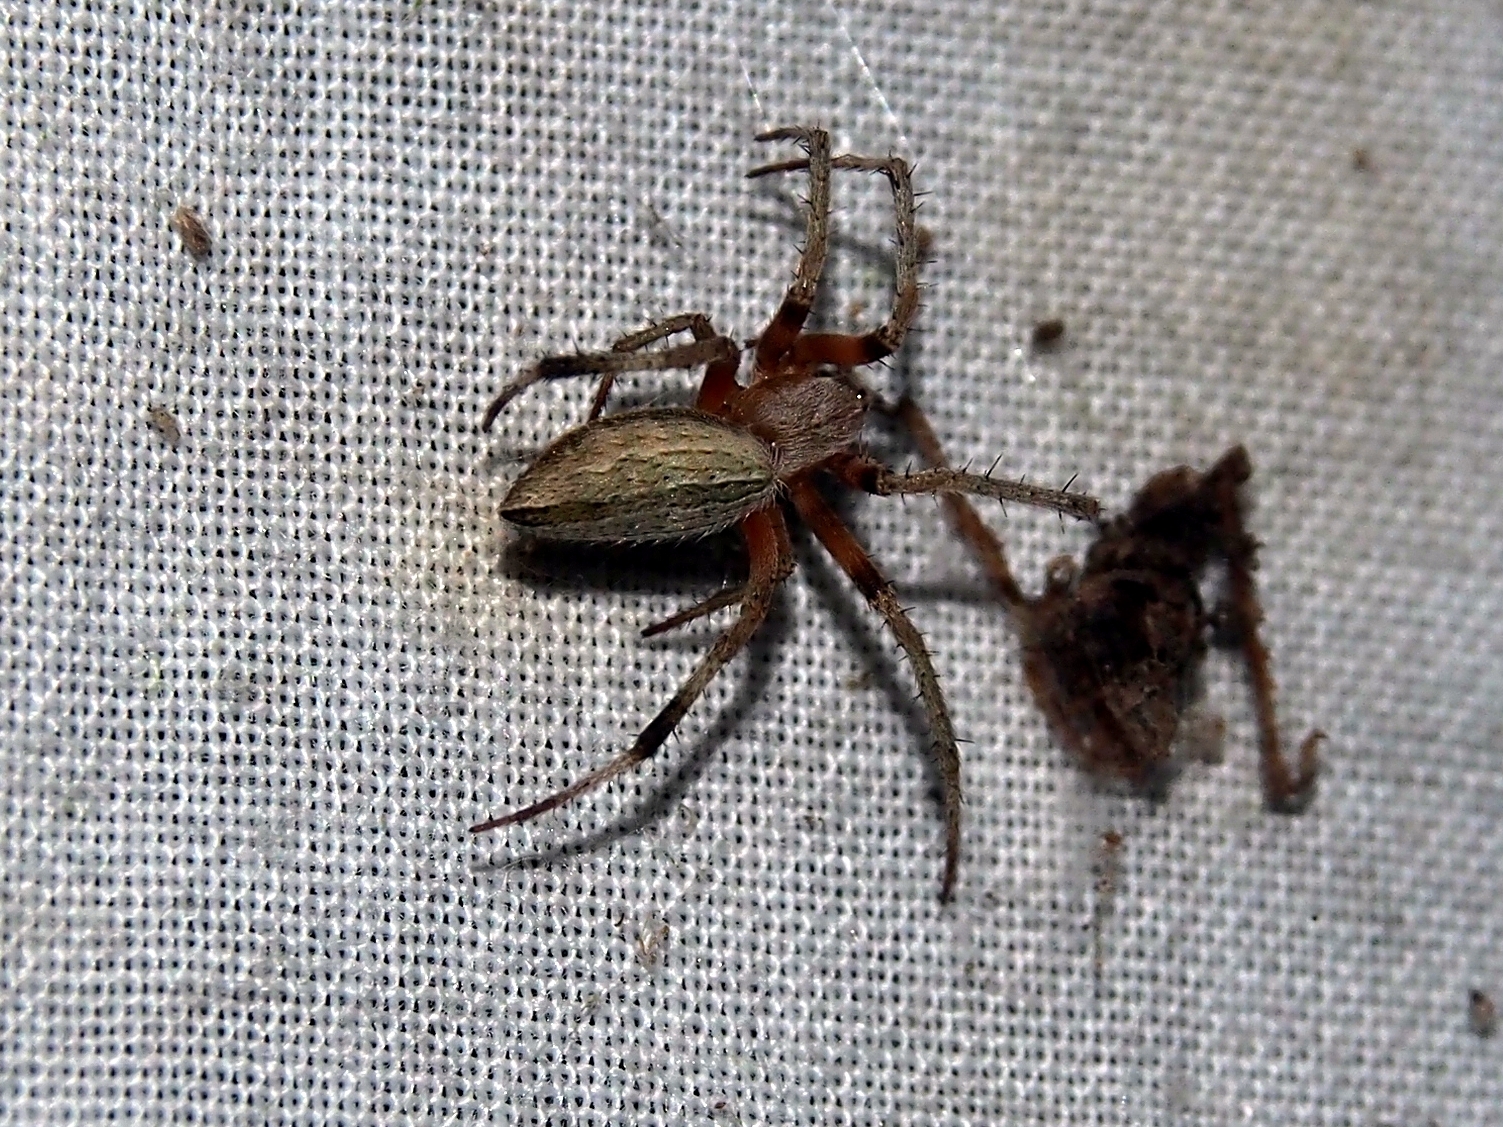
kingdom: Animalia
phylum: Arthropoda
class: Arachnida
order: Araneae
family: Araneidae
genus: Eustala
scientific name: Eustala illicita
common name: Orb weavers
